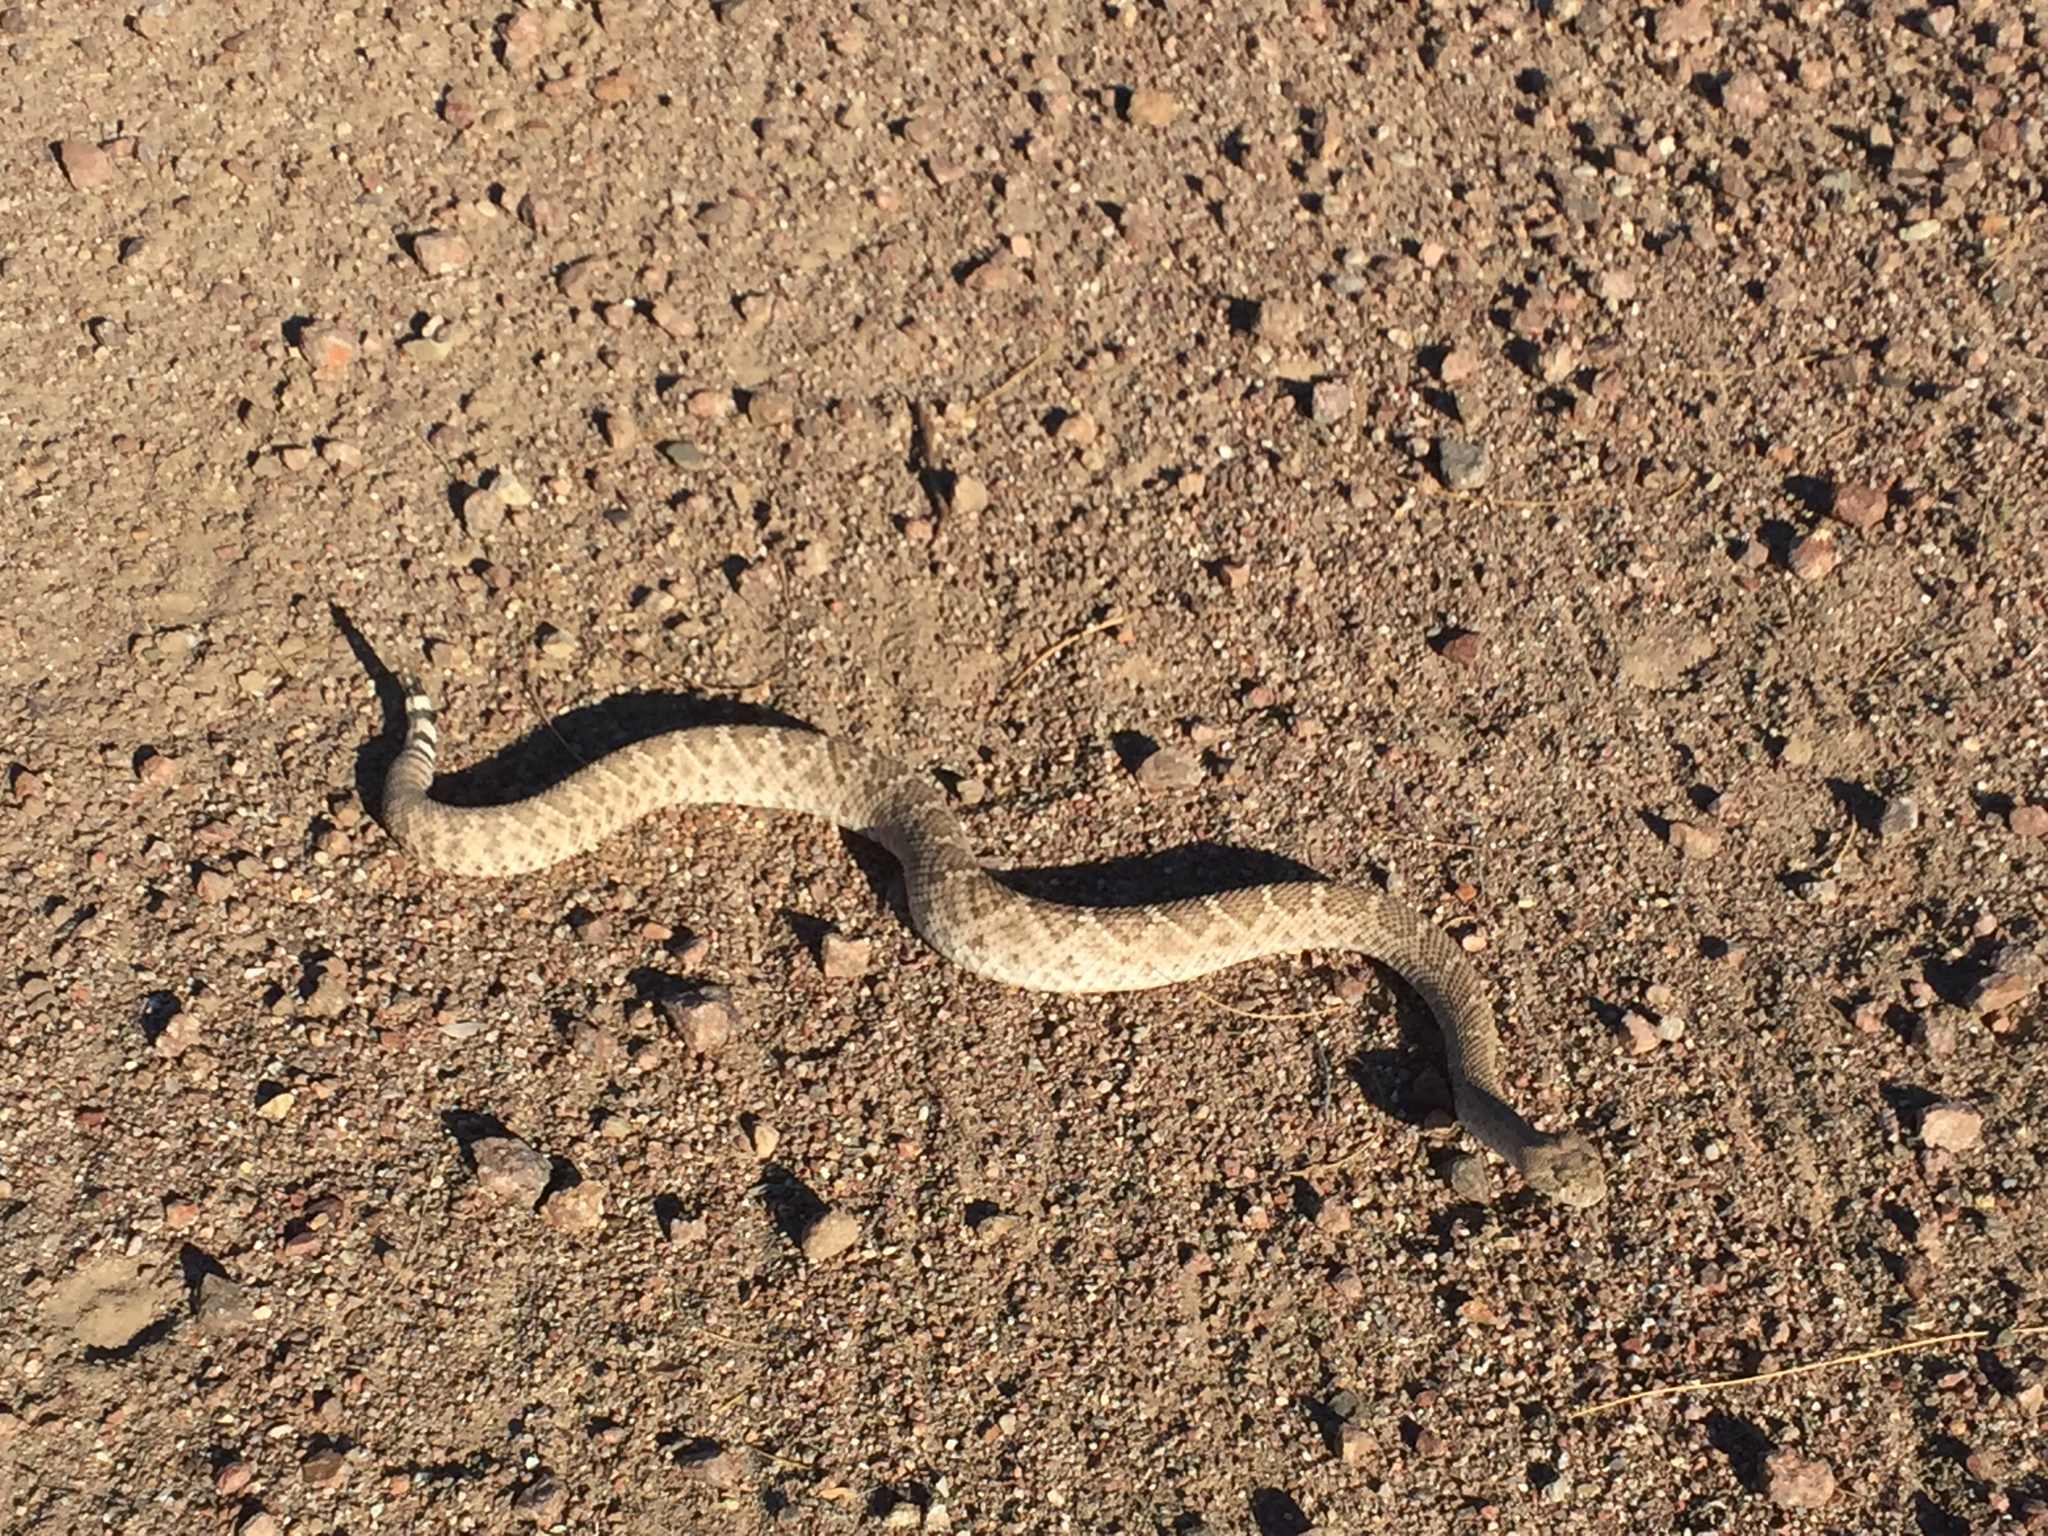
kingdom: Animalia
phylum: Chordata
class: Squamata
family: Viperidae
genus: Crotalus
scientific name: Crotalus atrox
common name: Western diamond-backed rattlesnake
